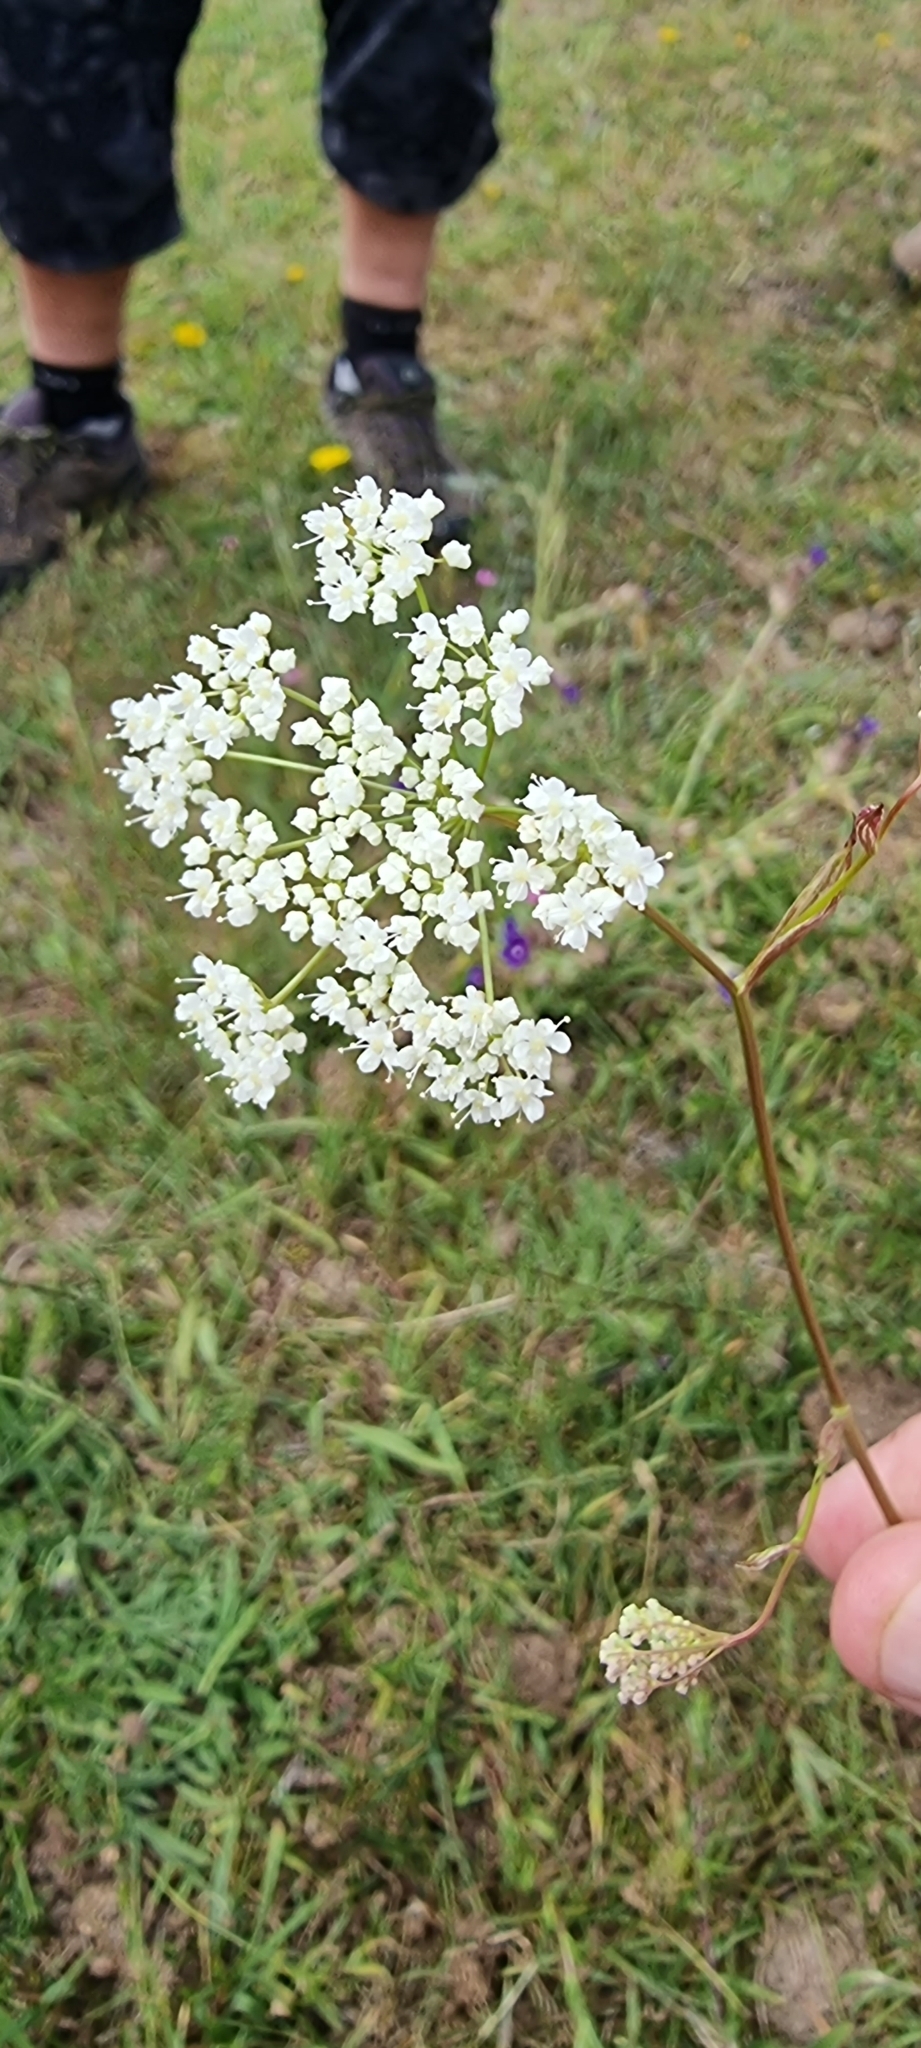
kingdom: Plantae
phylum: Tracheophyta
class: Magnoliopsida
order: Apiales
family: Apiaceae
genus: Pimpinella
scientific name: Pimpinella saxifraga
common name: Burnet-saxifrage
